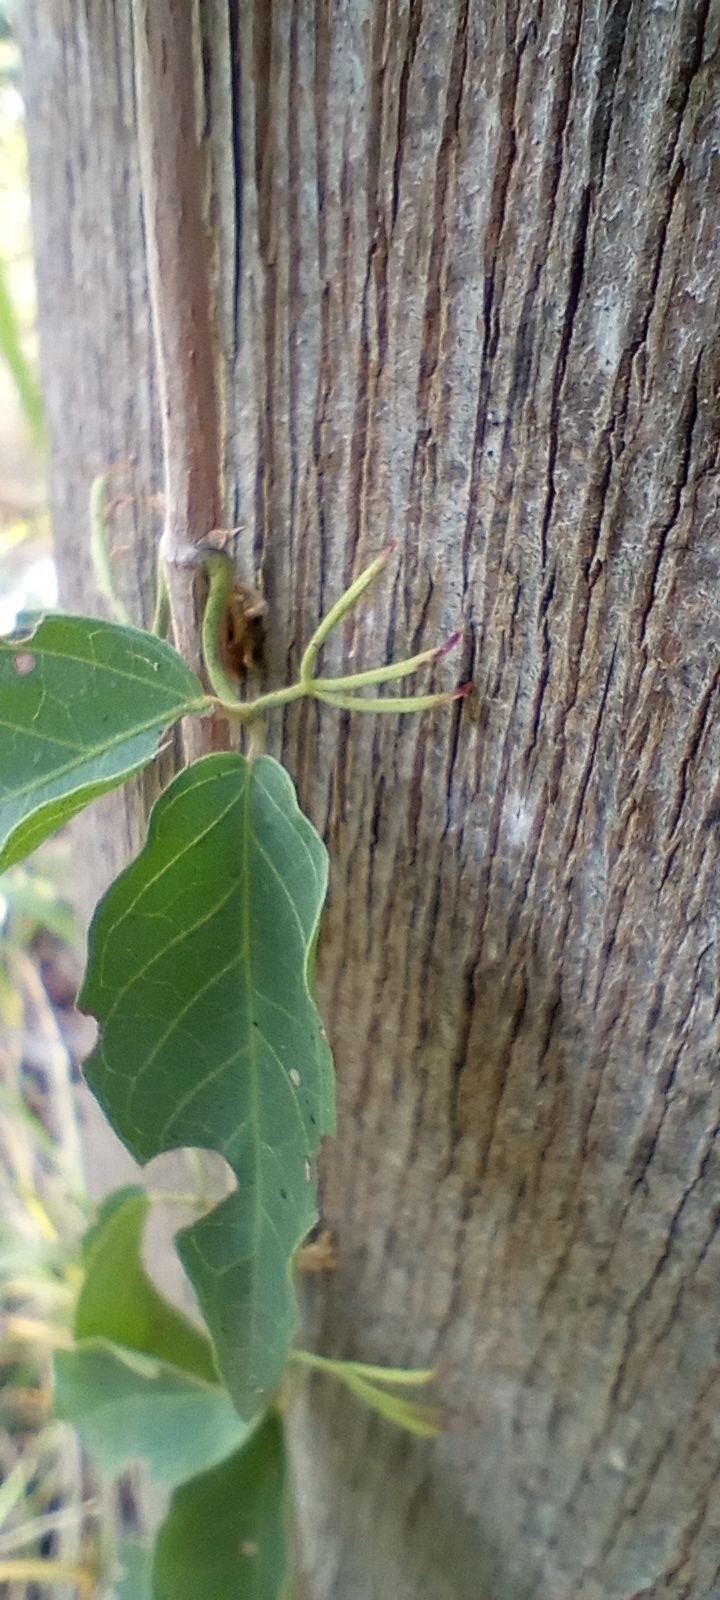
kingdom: Plantae
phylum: Tracheophyta
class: Magnoliopsida
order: Lamiales
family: Bignoniaceae
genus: Dolichandra
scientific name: Dolichandra unguis-cati
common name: Catclaw vine
